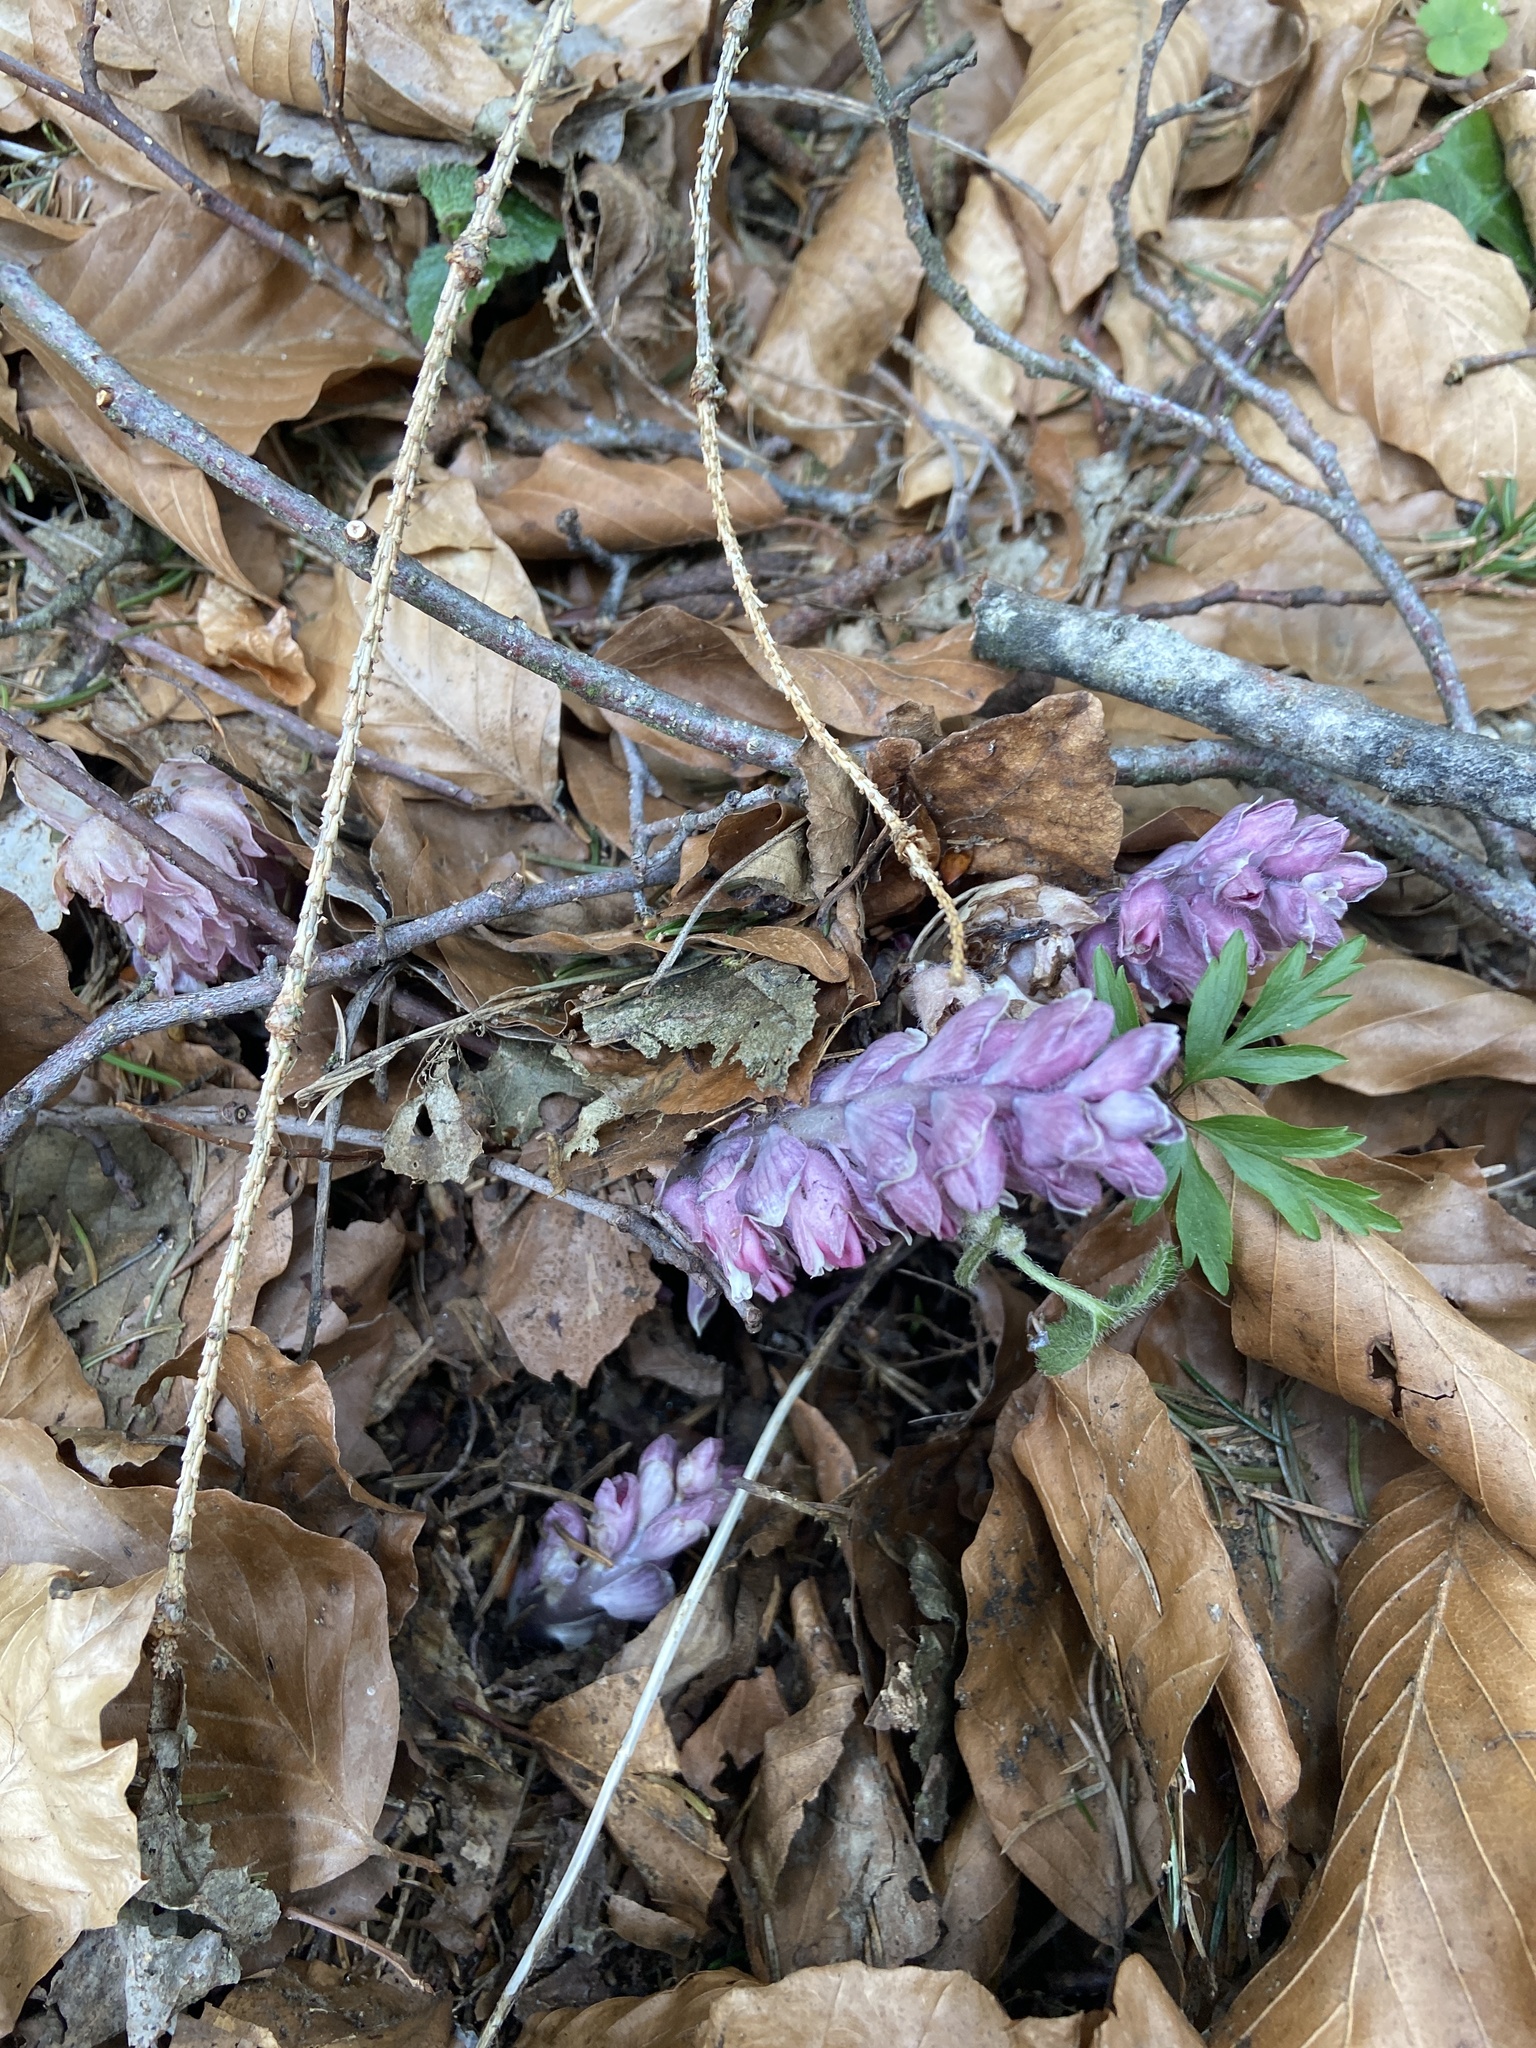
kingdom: Plantae
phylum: Tracheophyta
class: Magnoliopsida
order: Lamiales
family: Orobanchaceae
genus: Lathraea
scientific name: Lathraea squamaria
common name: Toothwort
